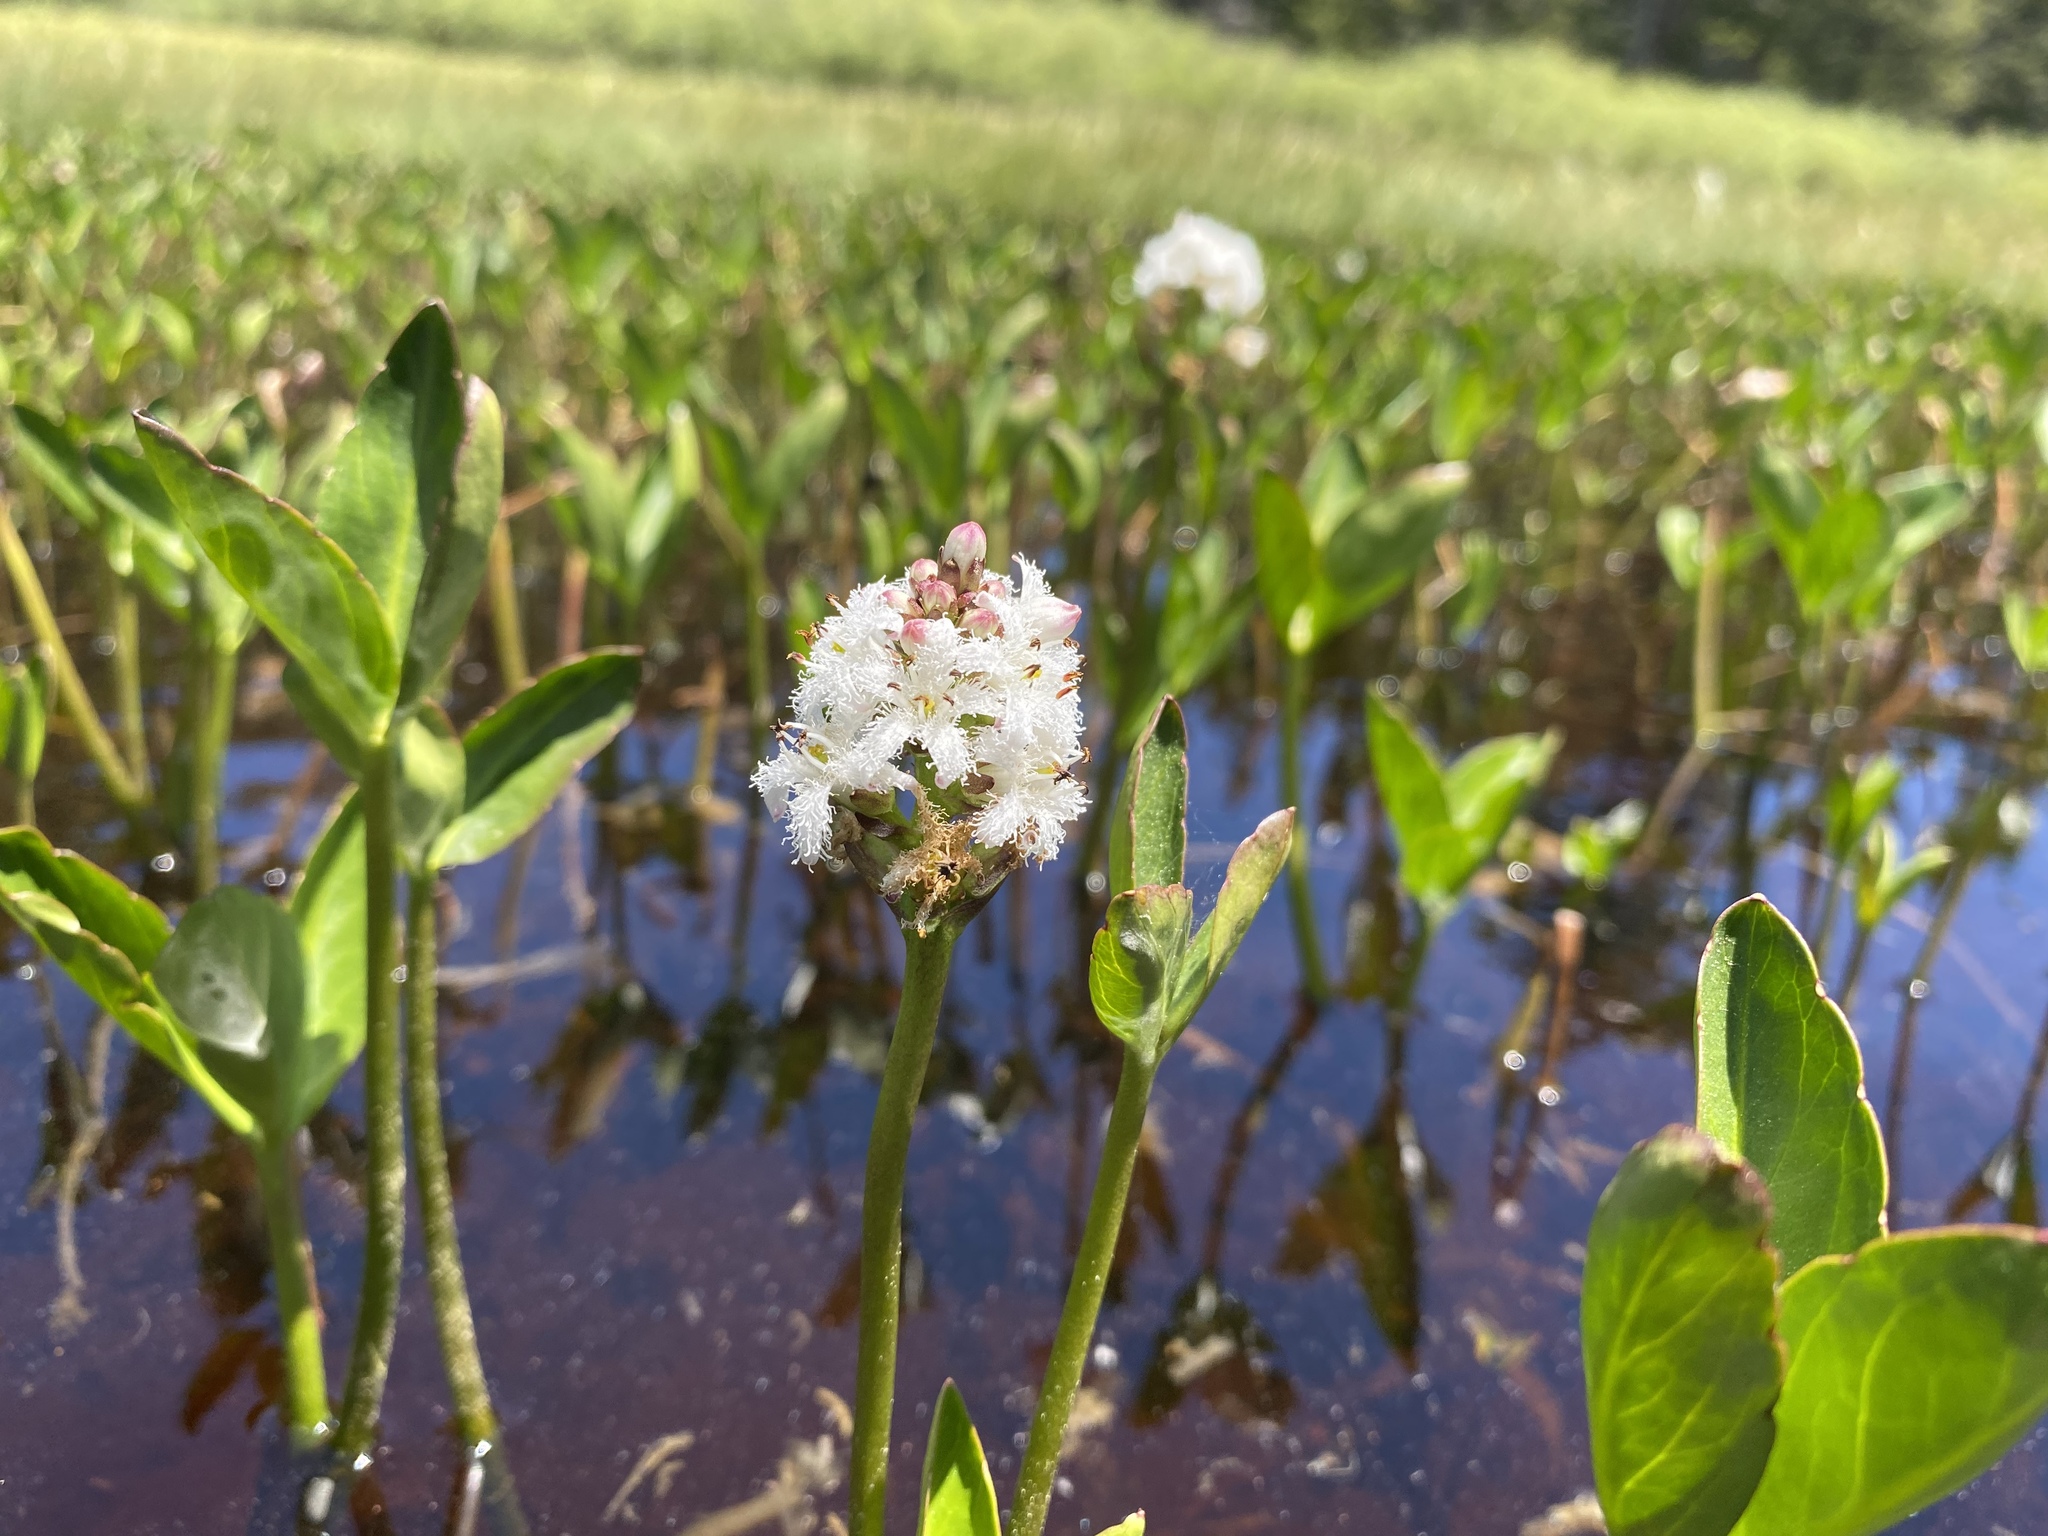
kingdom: Plantae
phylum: Tracheophyta
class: Magnoliopsida
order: Asterales
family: Menyanthaceae
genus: Menyanthes
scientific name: Menyanthes trifoliata
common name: Bogbean
